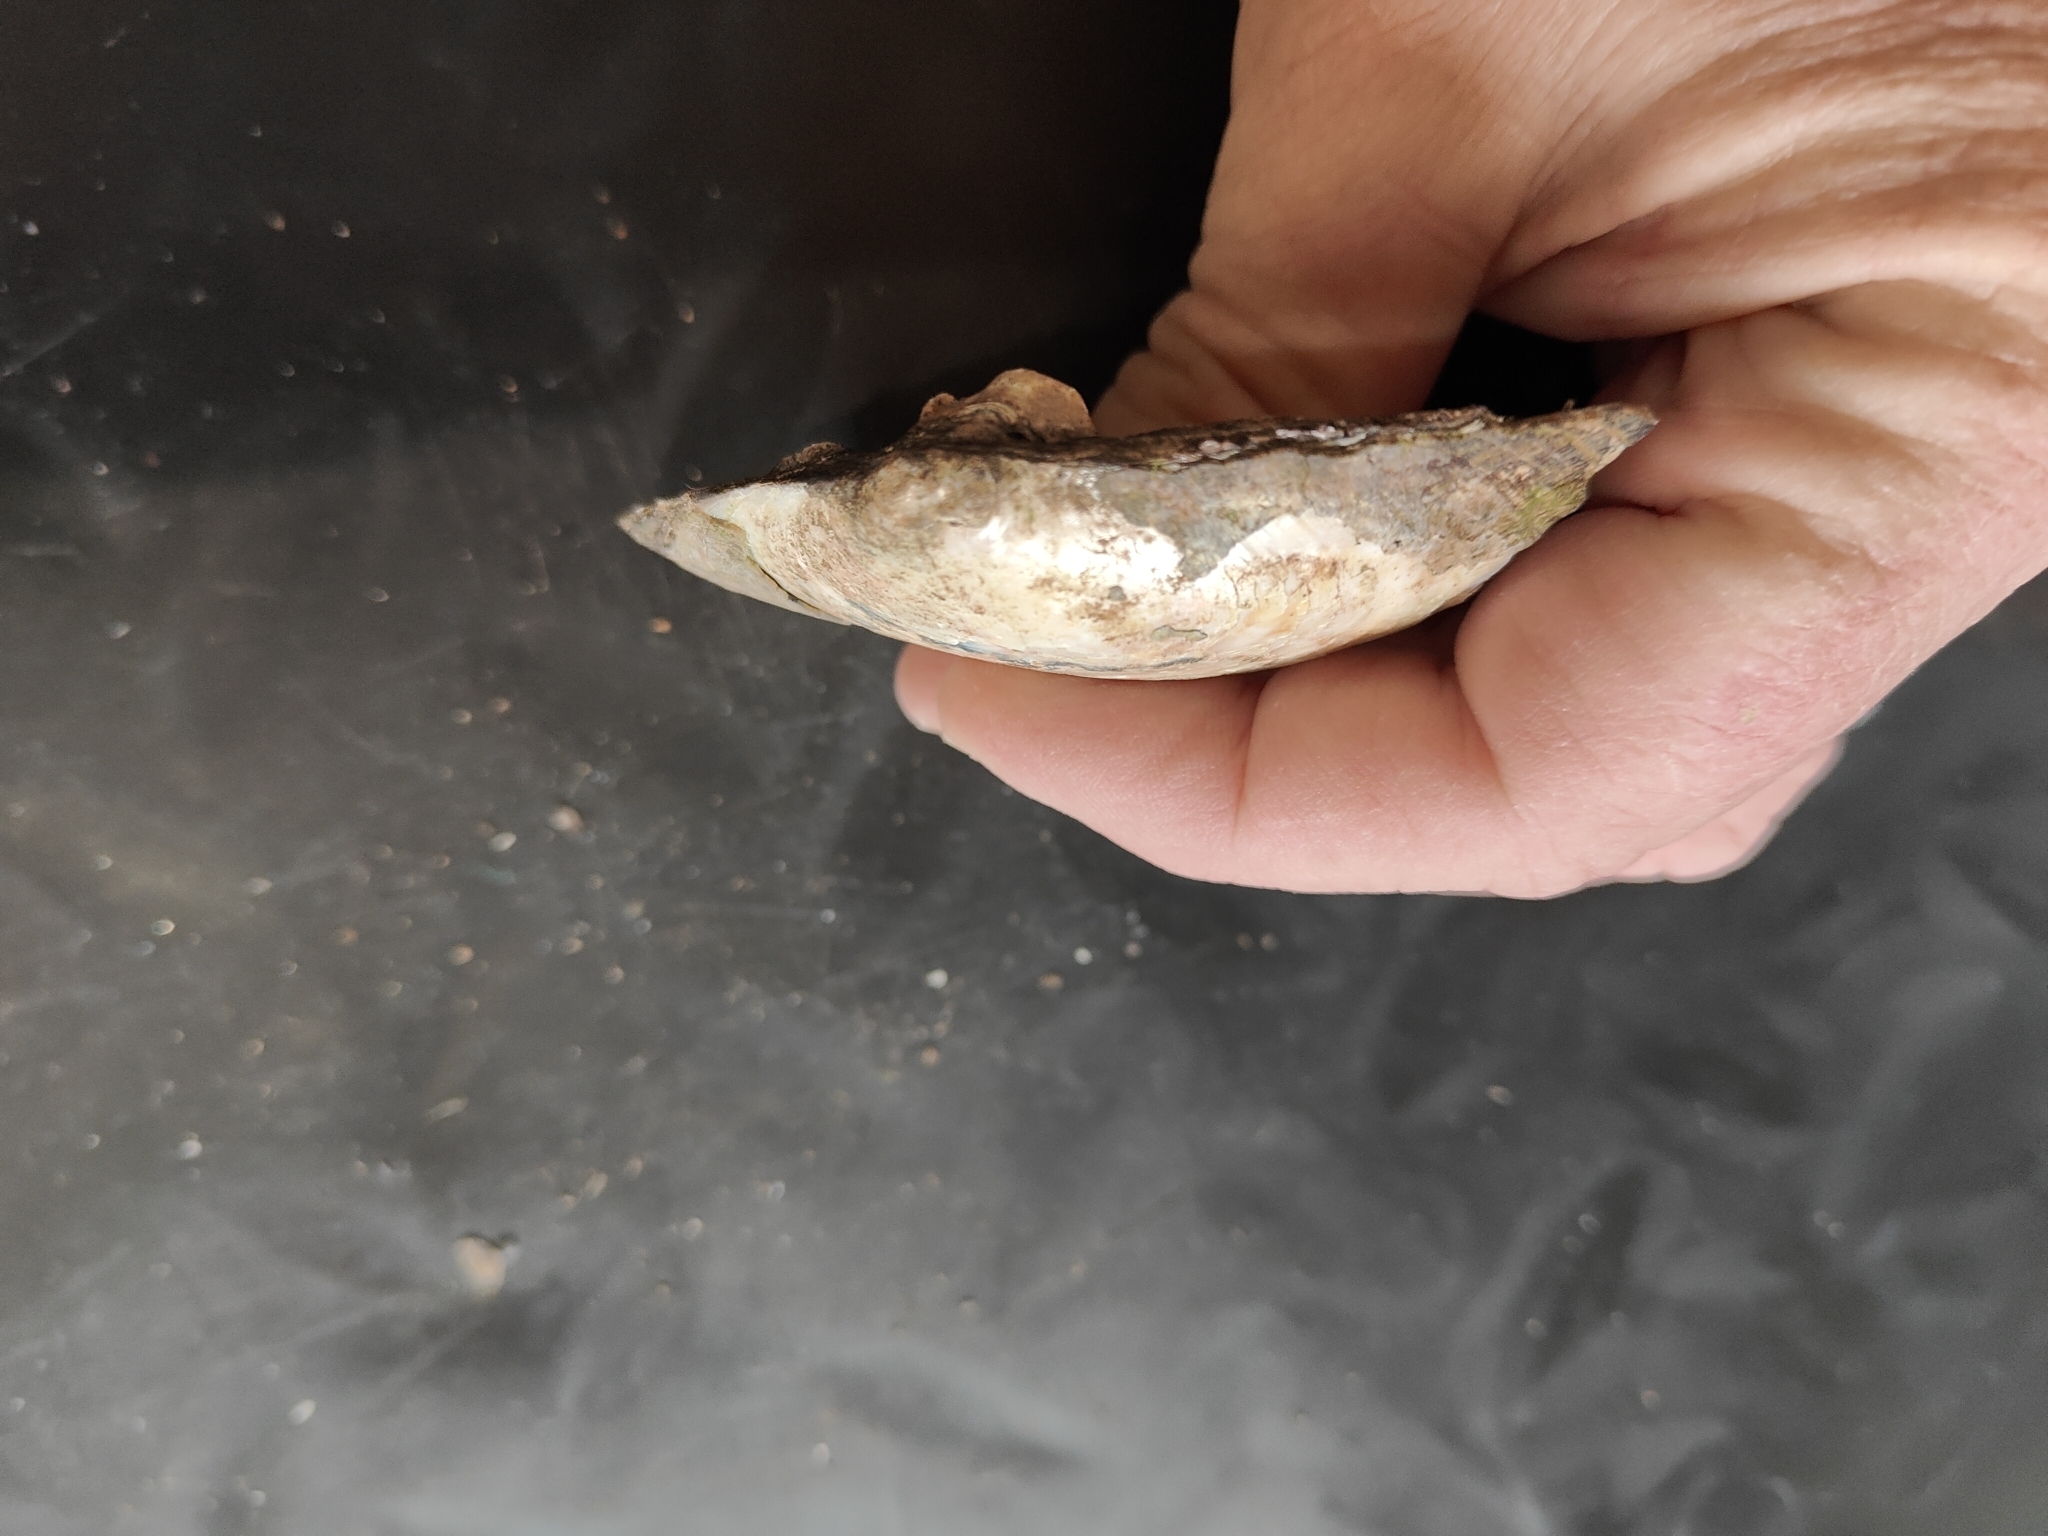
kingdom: Animalia
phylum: Mollusca
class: Bivalvia
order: Unionida
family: Unionidae
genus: Lasmigona
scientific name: Lasmigona complanata
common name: White heelsplitter
